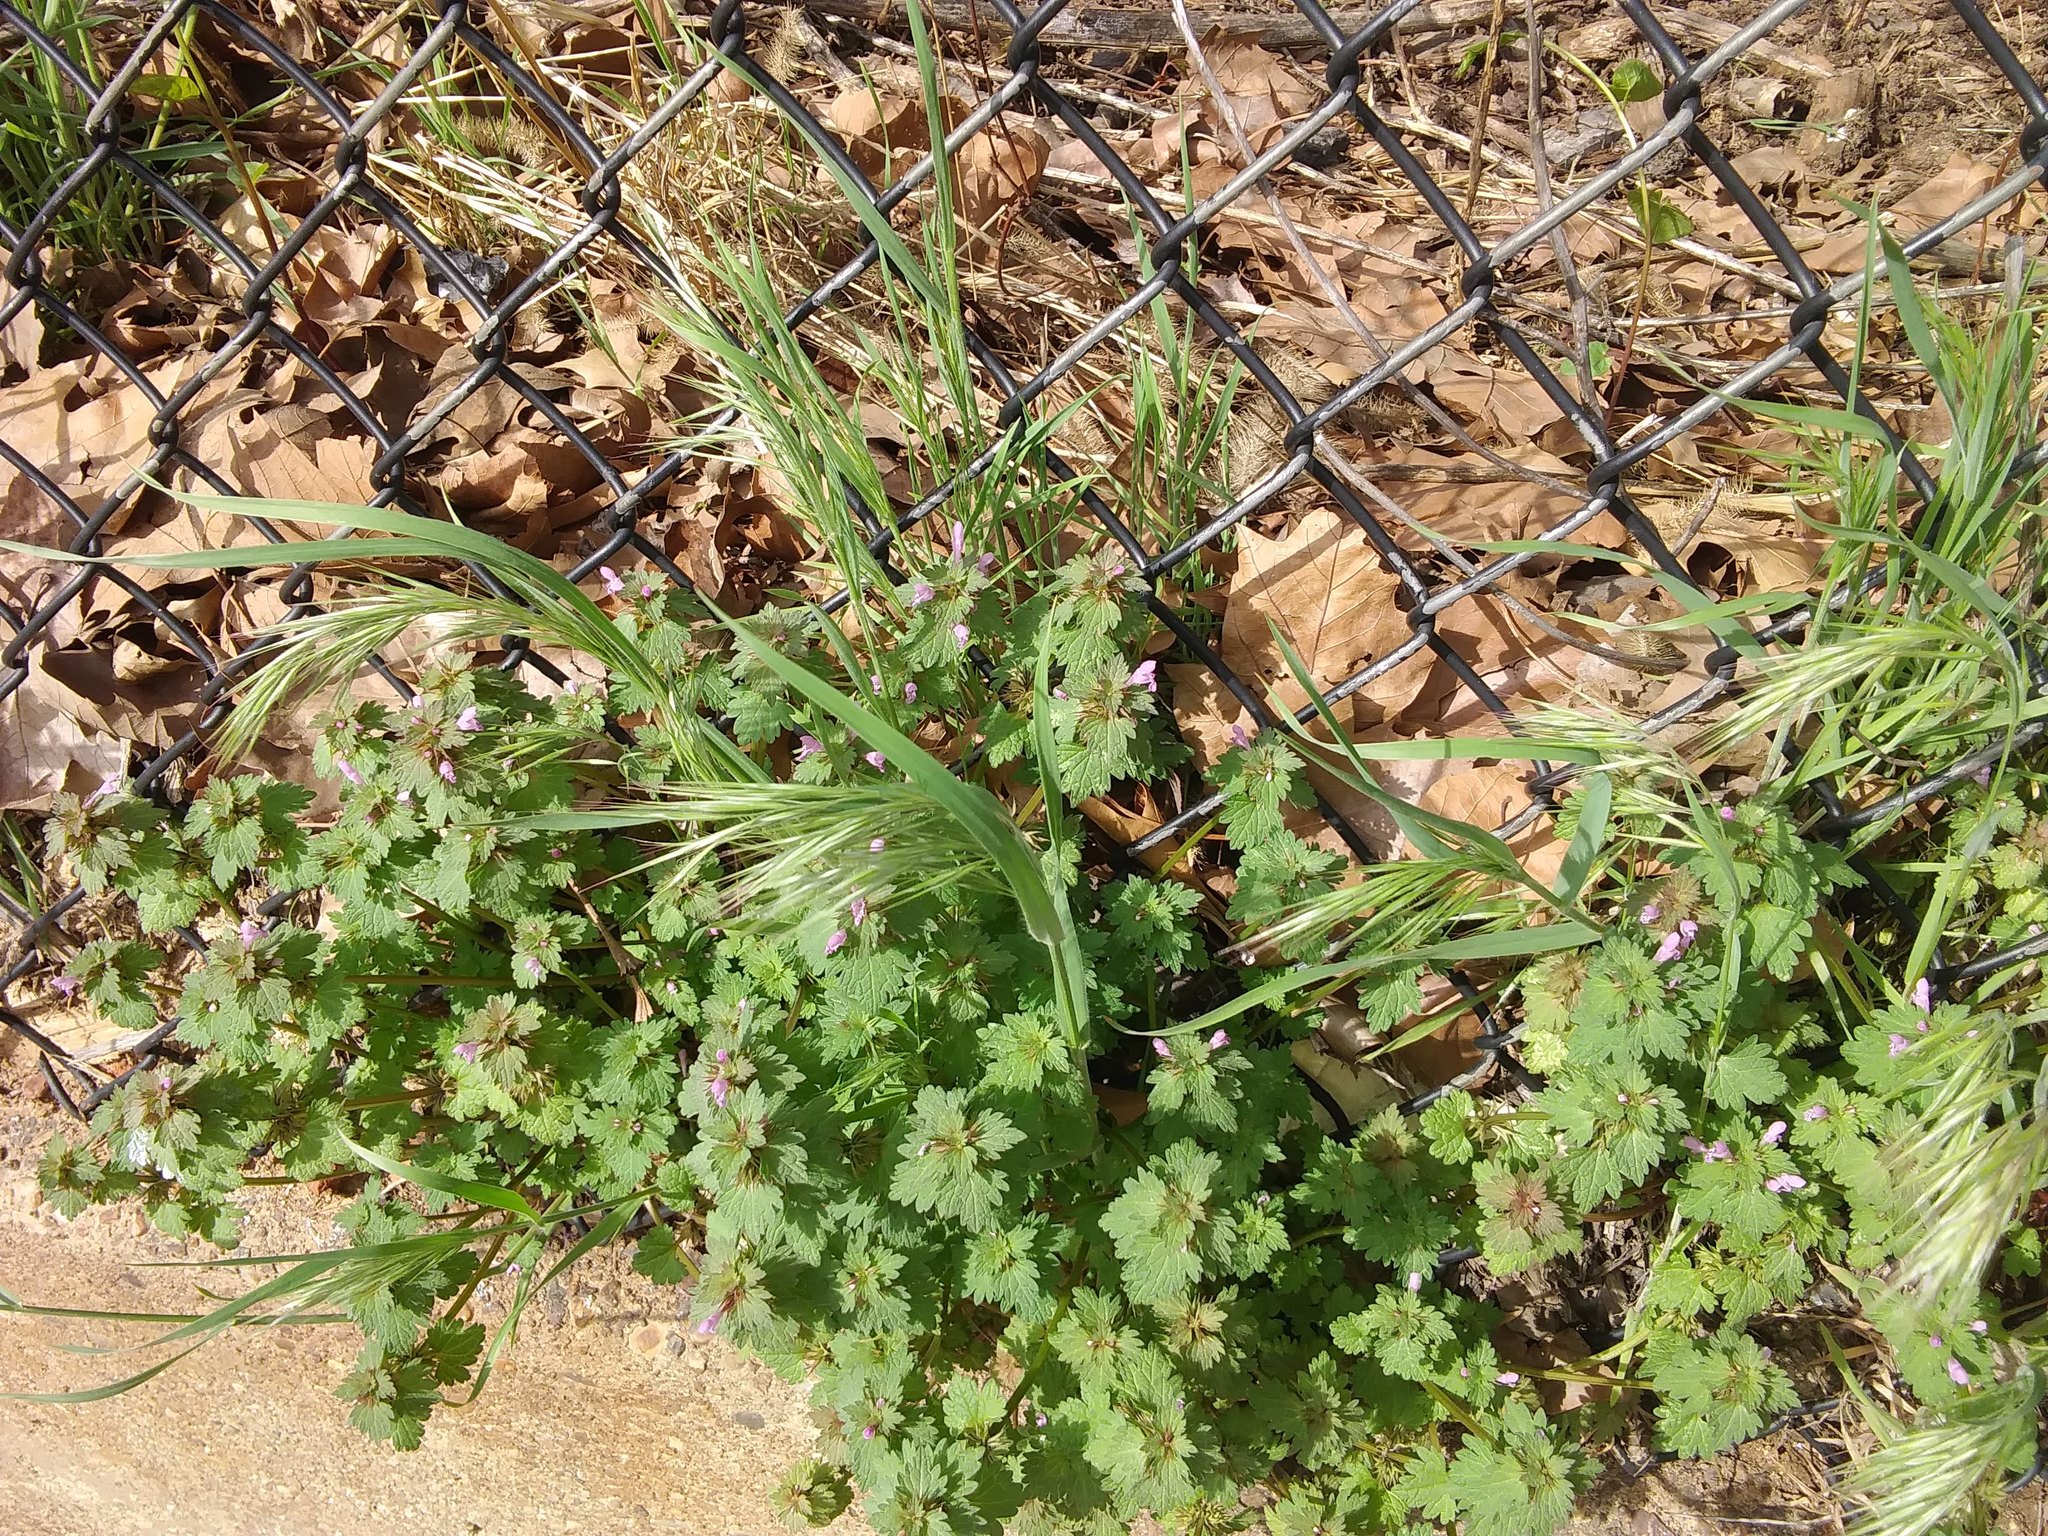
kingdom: Plantae
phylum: Tracheophyta
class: Magnoliopsida
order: Lamiales
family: Lamiaceae
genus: Lamium
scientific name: Lamium hybridum
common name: Cut-leaved dead-nettle
